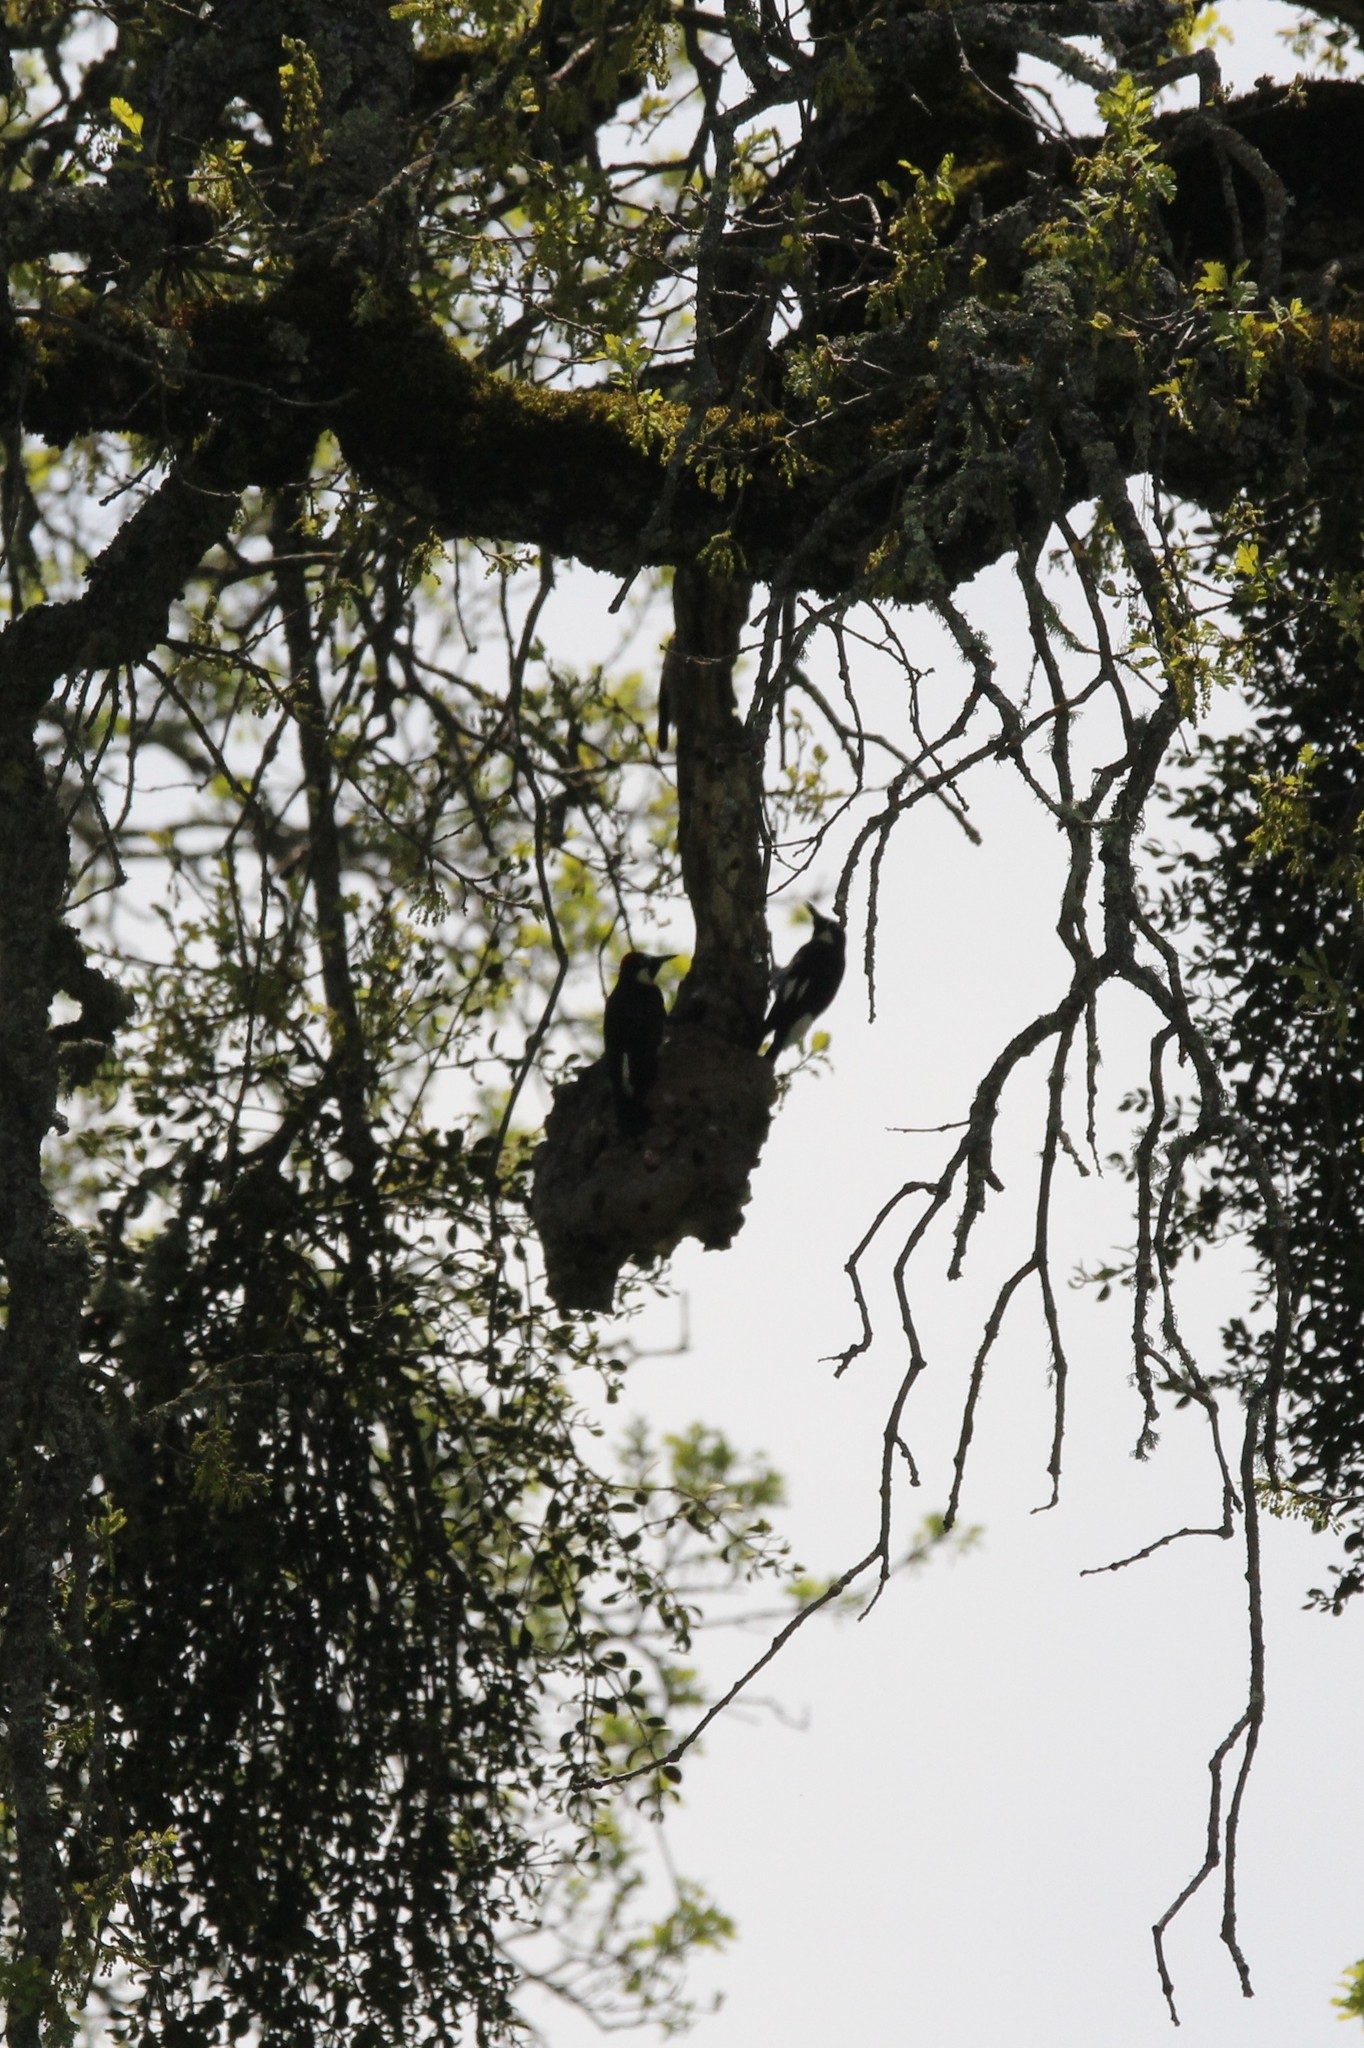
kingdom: Animalia
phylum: Chordata
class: Aves
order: Piciformes
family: Picidae
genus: Melanerpes
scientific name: Melanerpes formicivorus
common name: Acorn woodpecker
